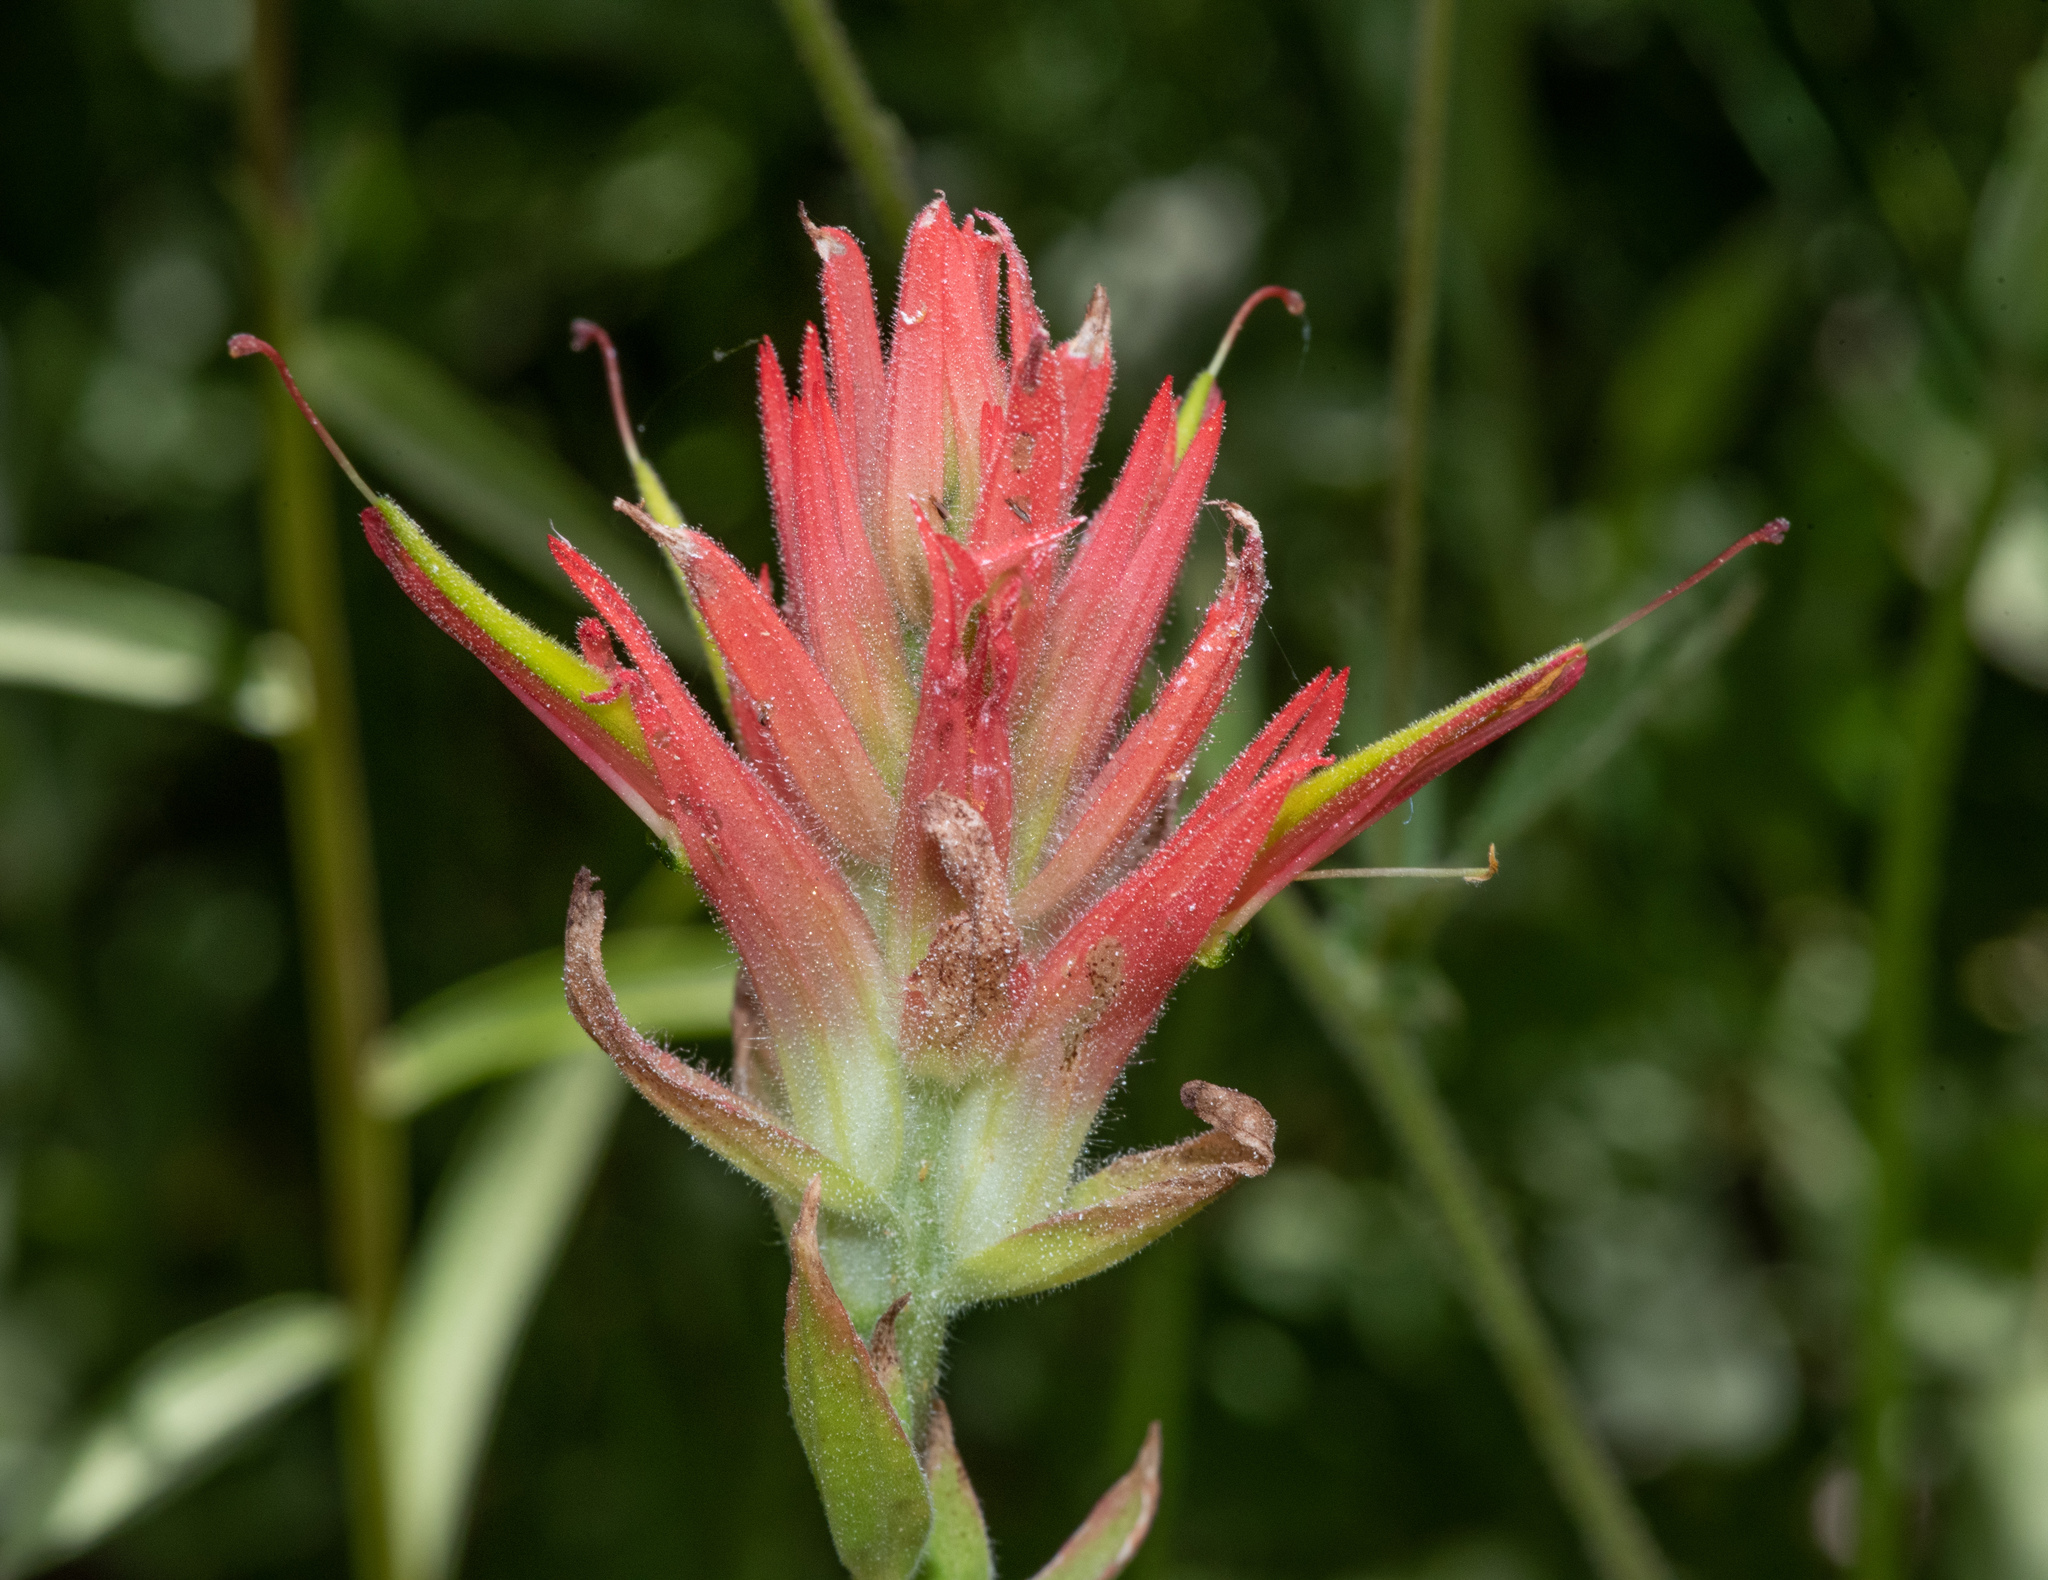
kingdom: Plantae
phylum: Tracheophyta
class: Magnoliopsida
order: Lamiales
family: Orobanchaceae
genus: Castilleja
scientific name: Castilleja miniata
